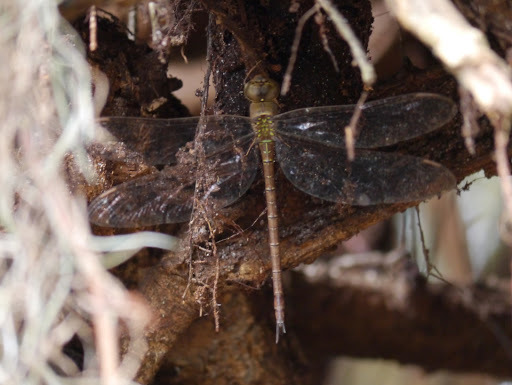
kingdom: Animalia
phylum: Arthropoda
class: Insecta
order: Odonata
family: Aeshnidae
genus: Gynacantha
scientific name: Gynacantha nervosa
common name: Twilight darner
